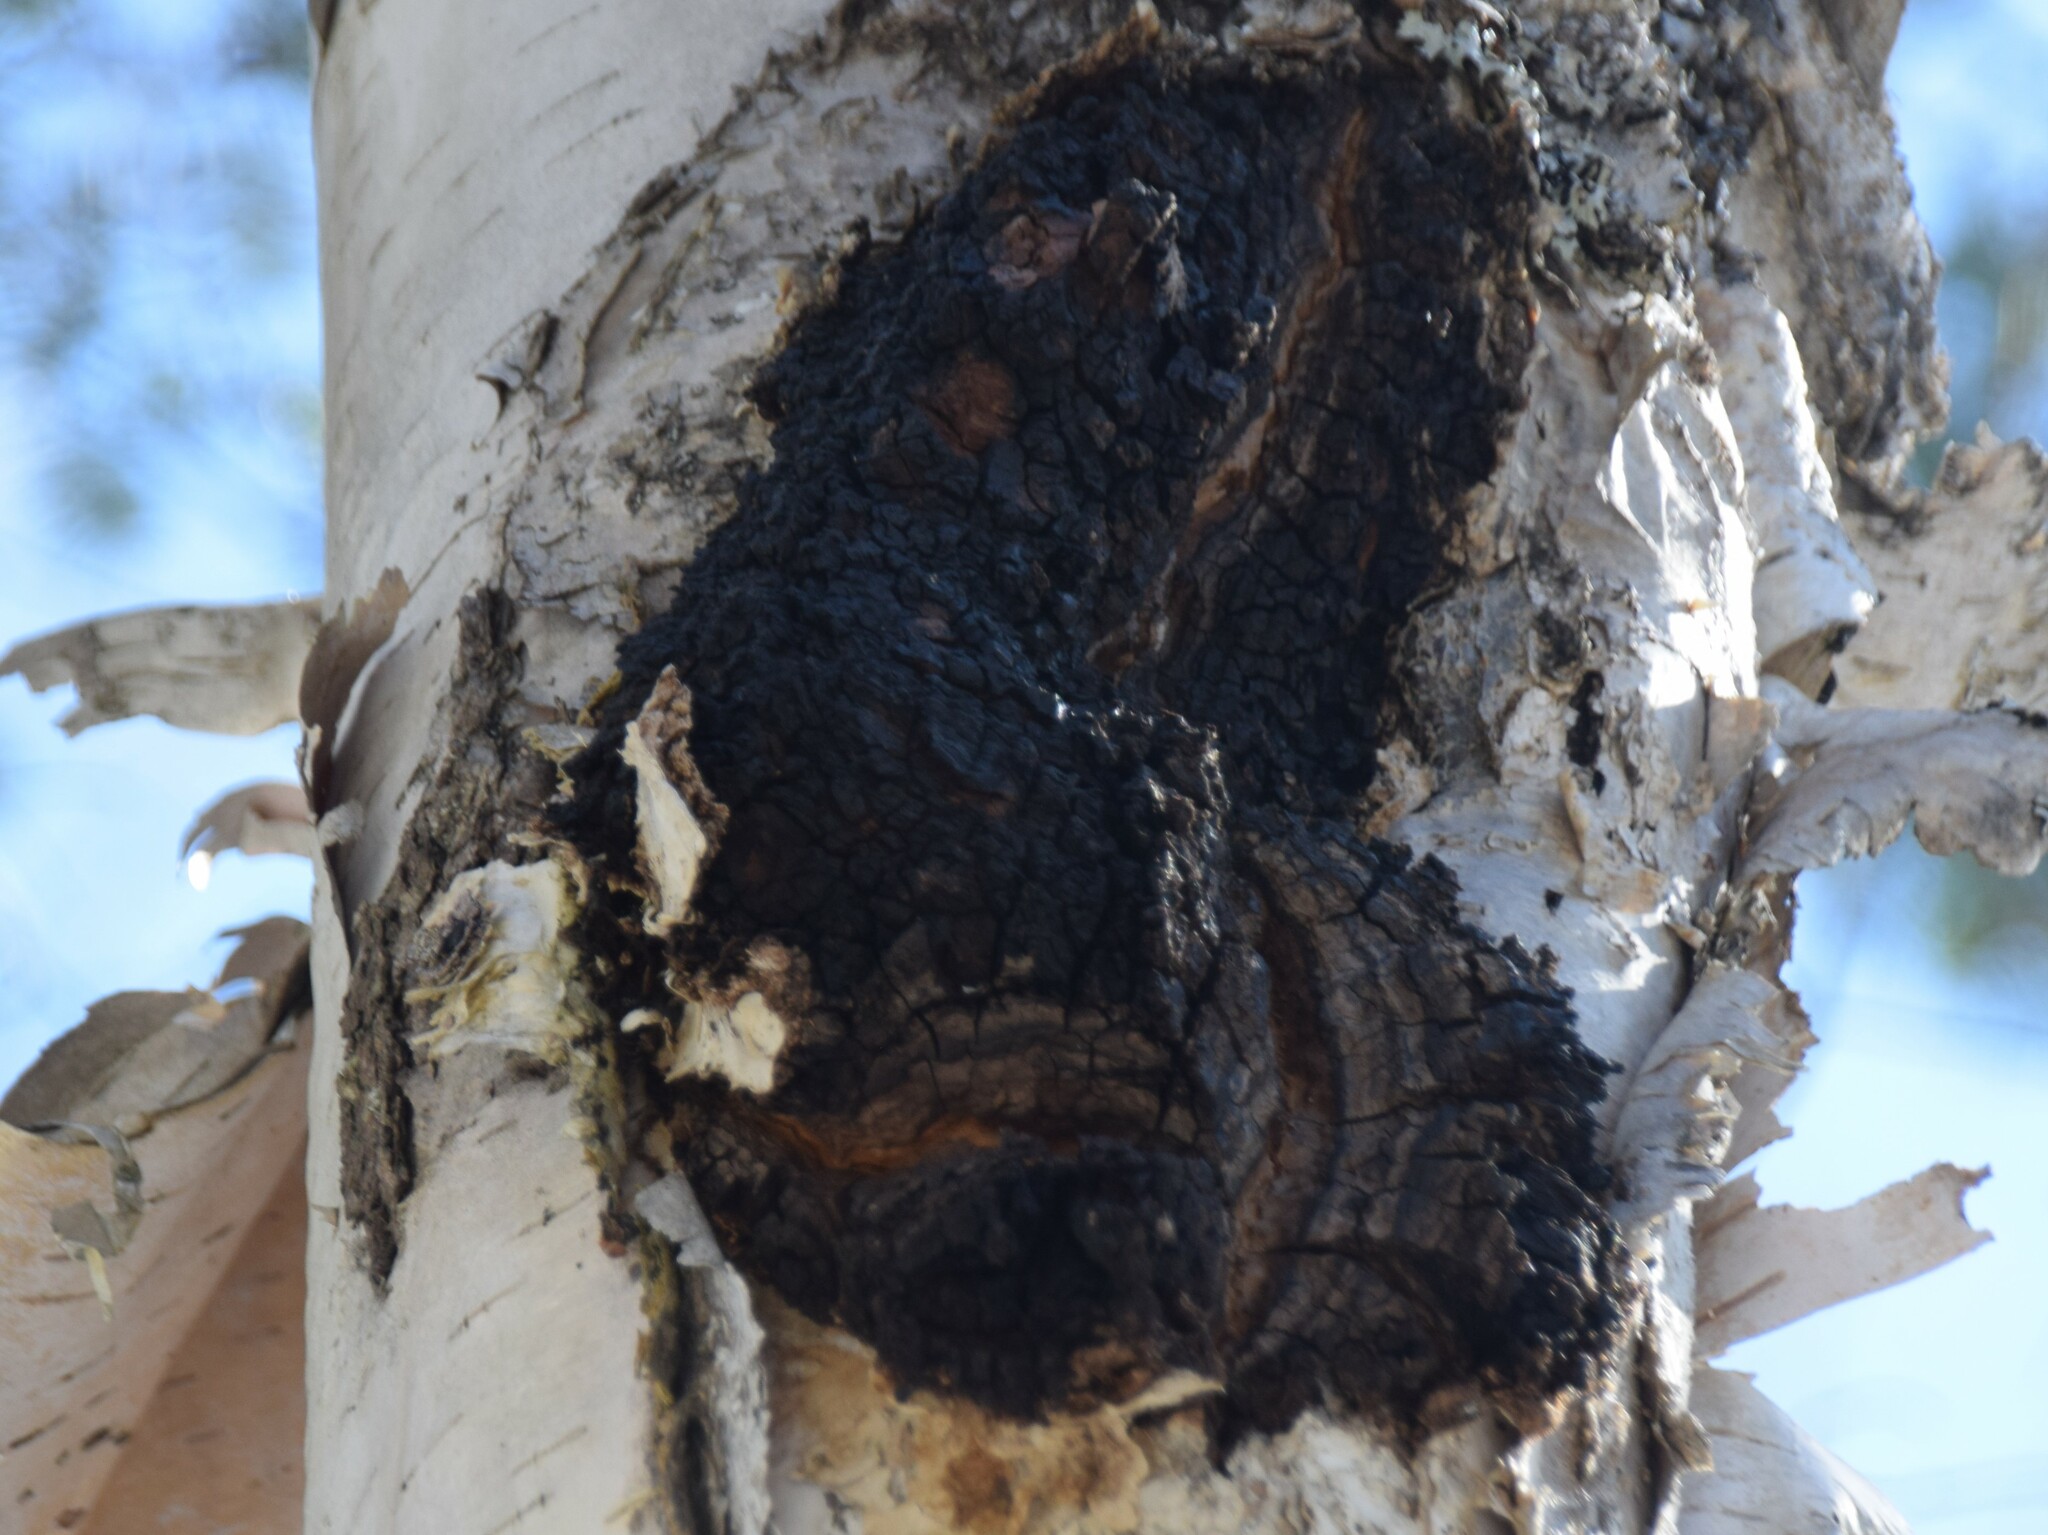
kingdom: Fungi
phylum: Basidiomycota
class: Agaricomycetes
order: Hymenochaetales
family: Hymenochaetaceae
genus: Inonotus
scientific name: Inonotus obliquus
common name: Chaga
